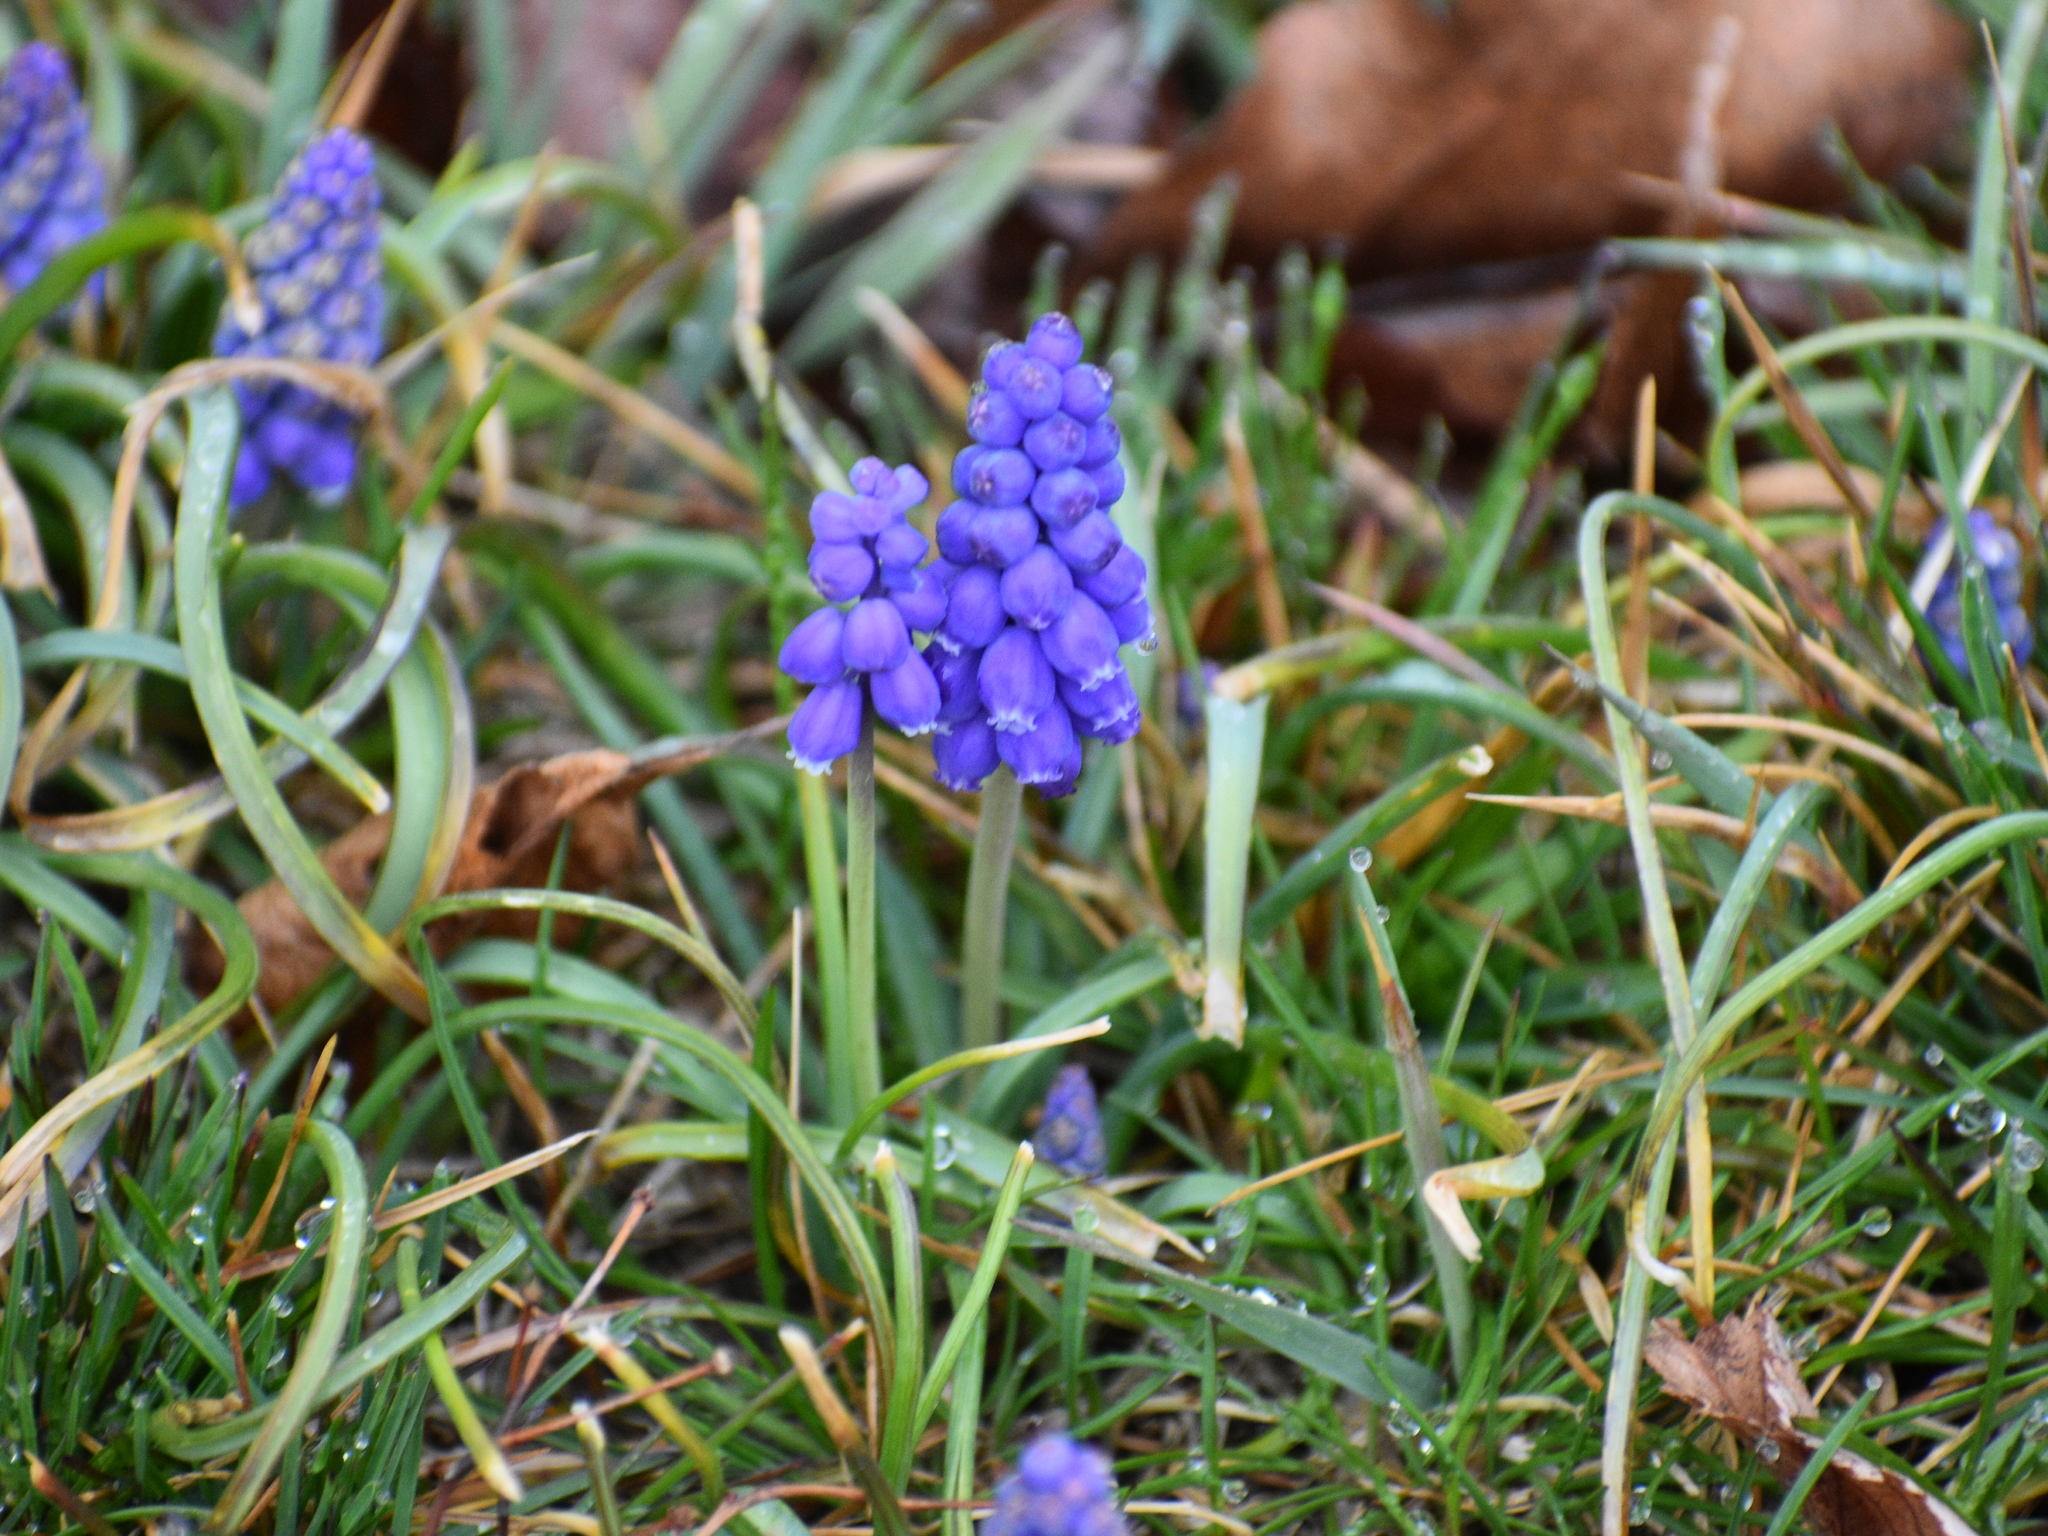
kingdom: Plantae
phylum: Tracheophyta
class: Liliopsida
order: Asparagales
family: Asparagaceae
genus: Muscari
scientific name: Muscari botryoides
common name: Compact grape-hyacinth
